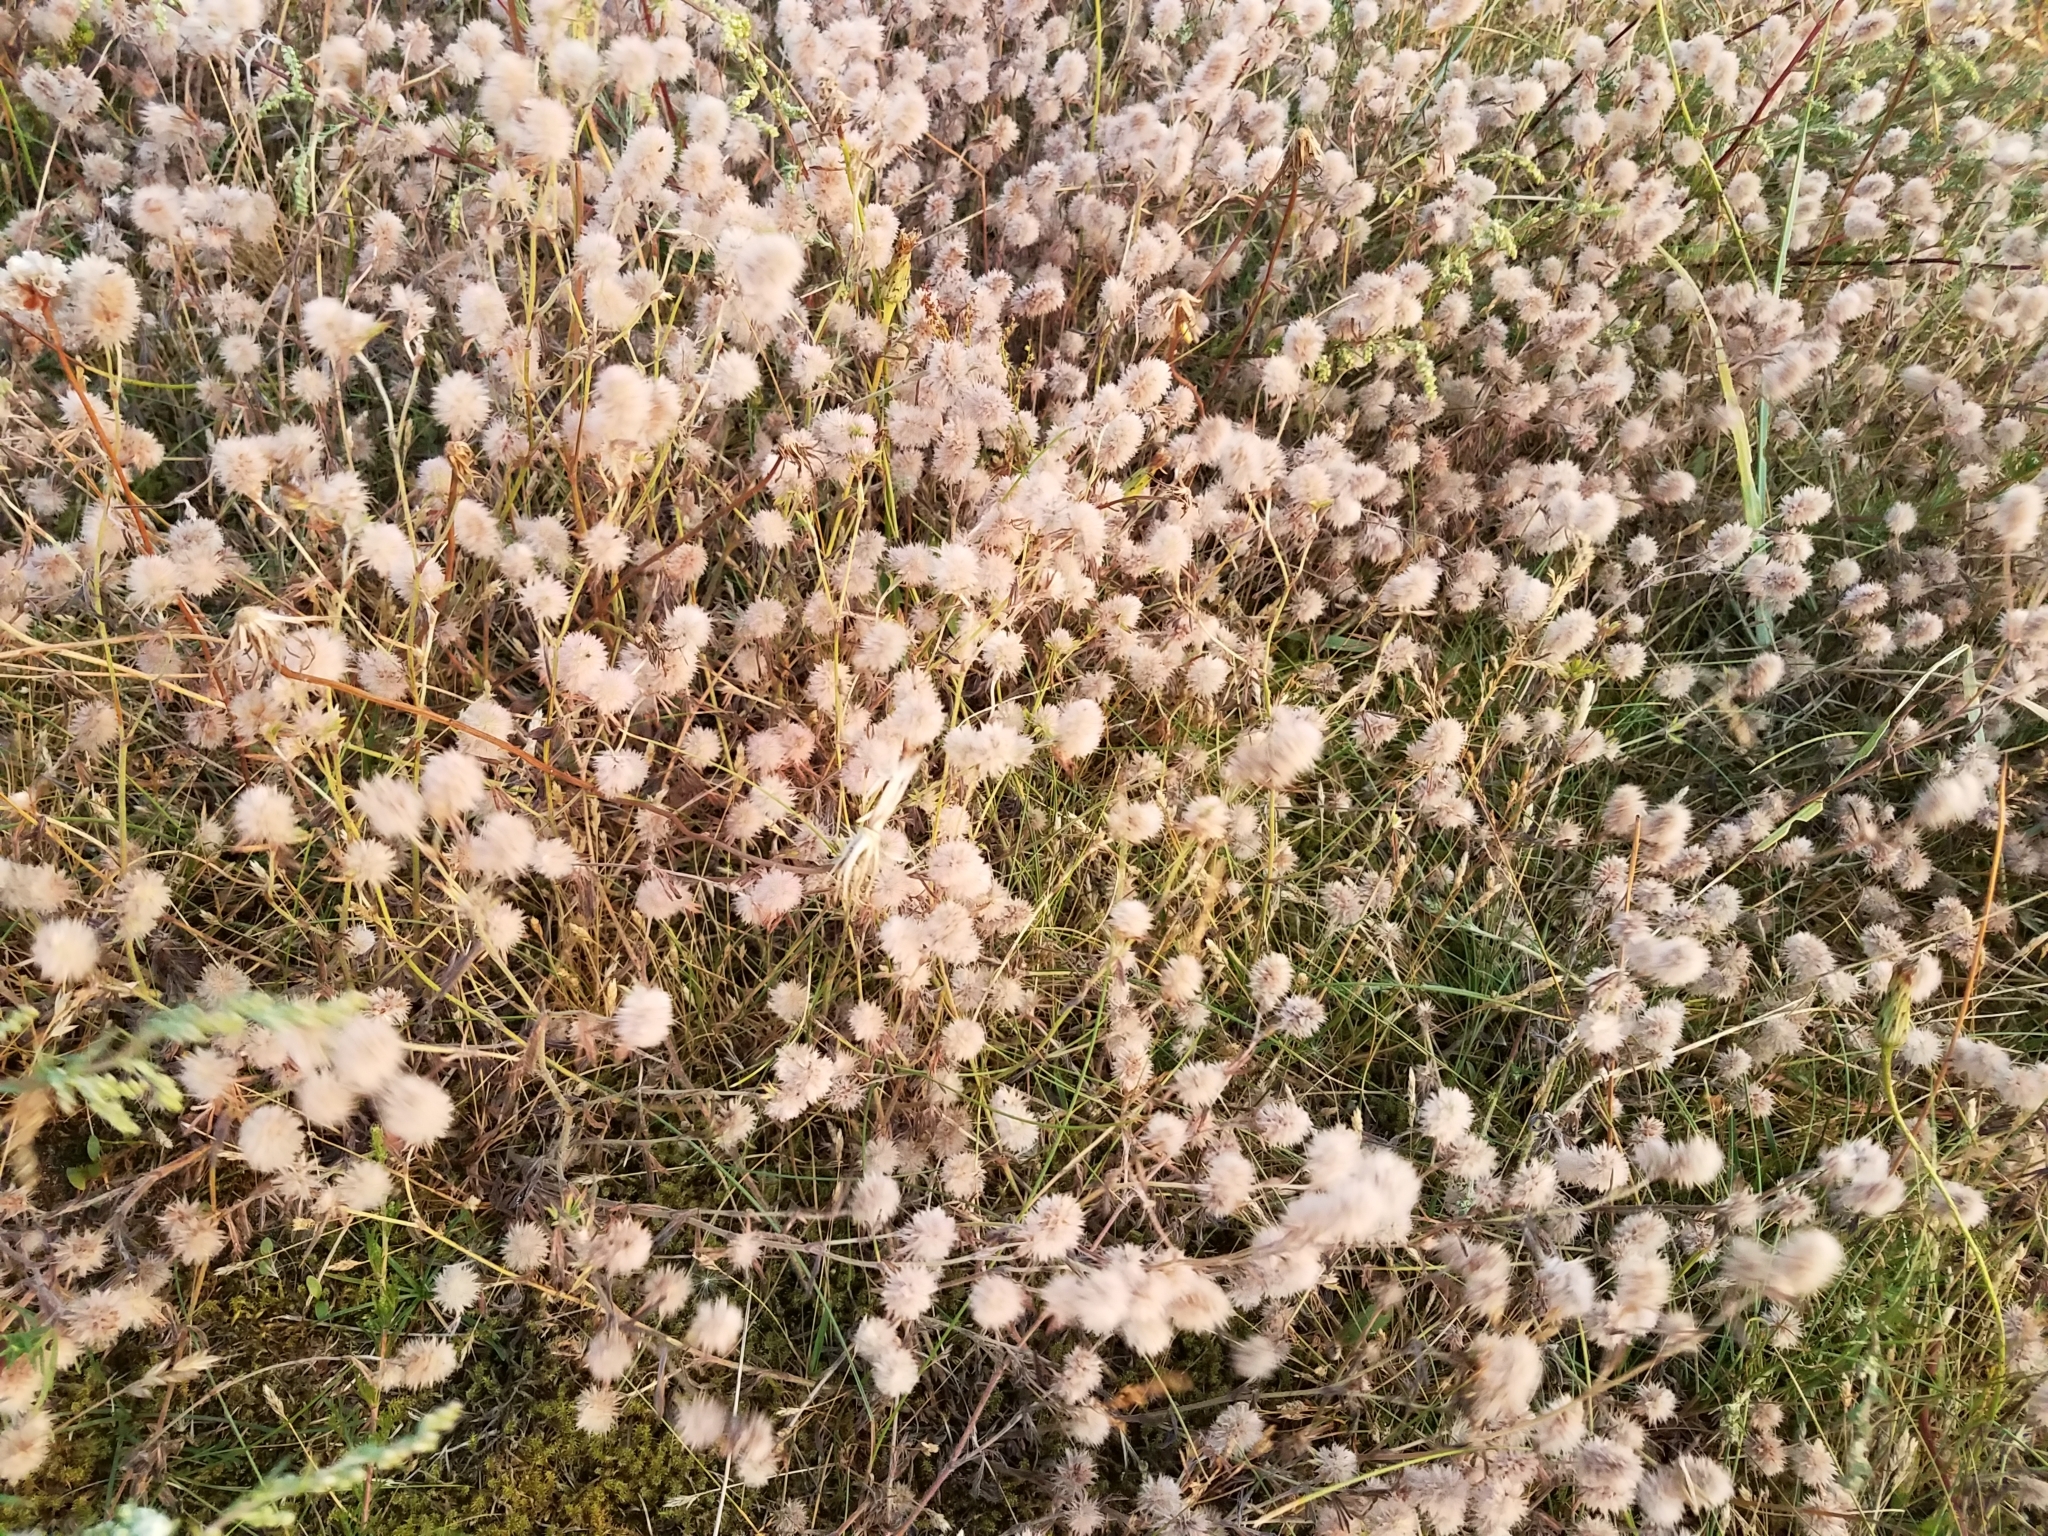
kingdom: Plantae
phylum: Tracheophyta
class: Magnoliopsida
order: Fabales
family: Fabaceae
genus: Trifolium
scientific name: Trifolium arvense
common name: Hare's-foot clover
